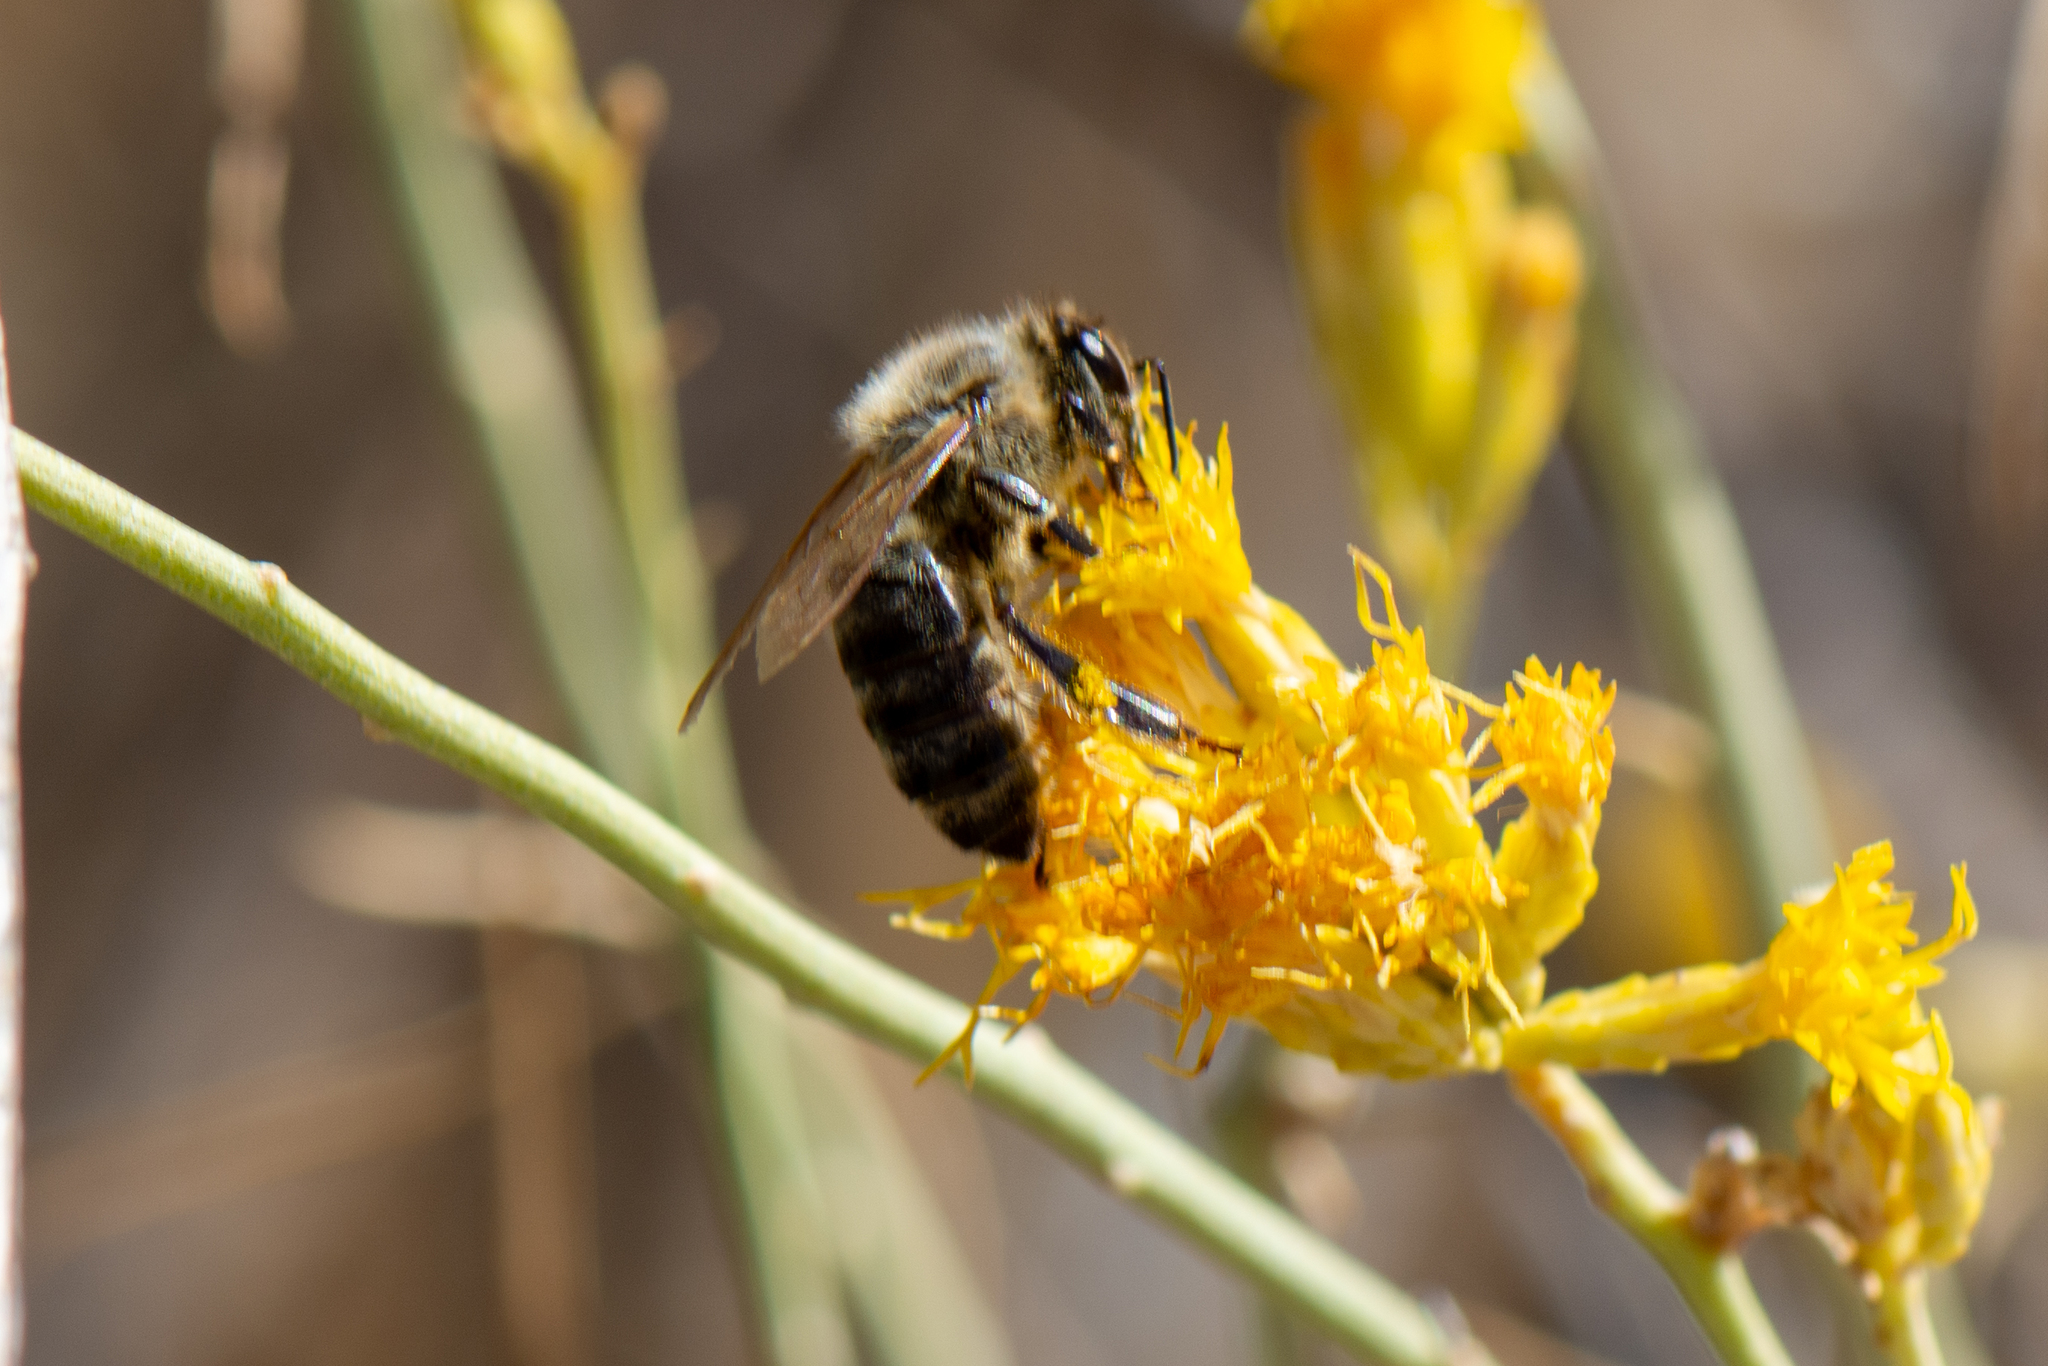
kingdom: Animalia
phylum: Arthropoda
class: Insecta
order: Hymenoptera
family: Apidae
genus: Apis
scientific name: Apis mellifera
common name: Honey bee
